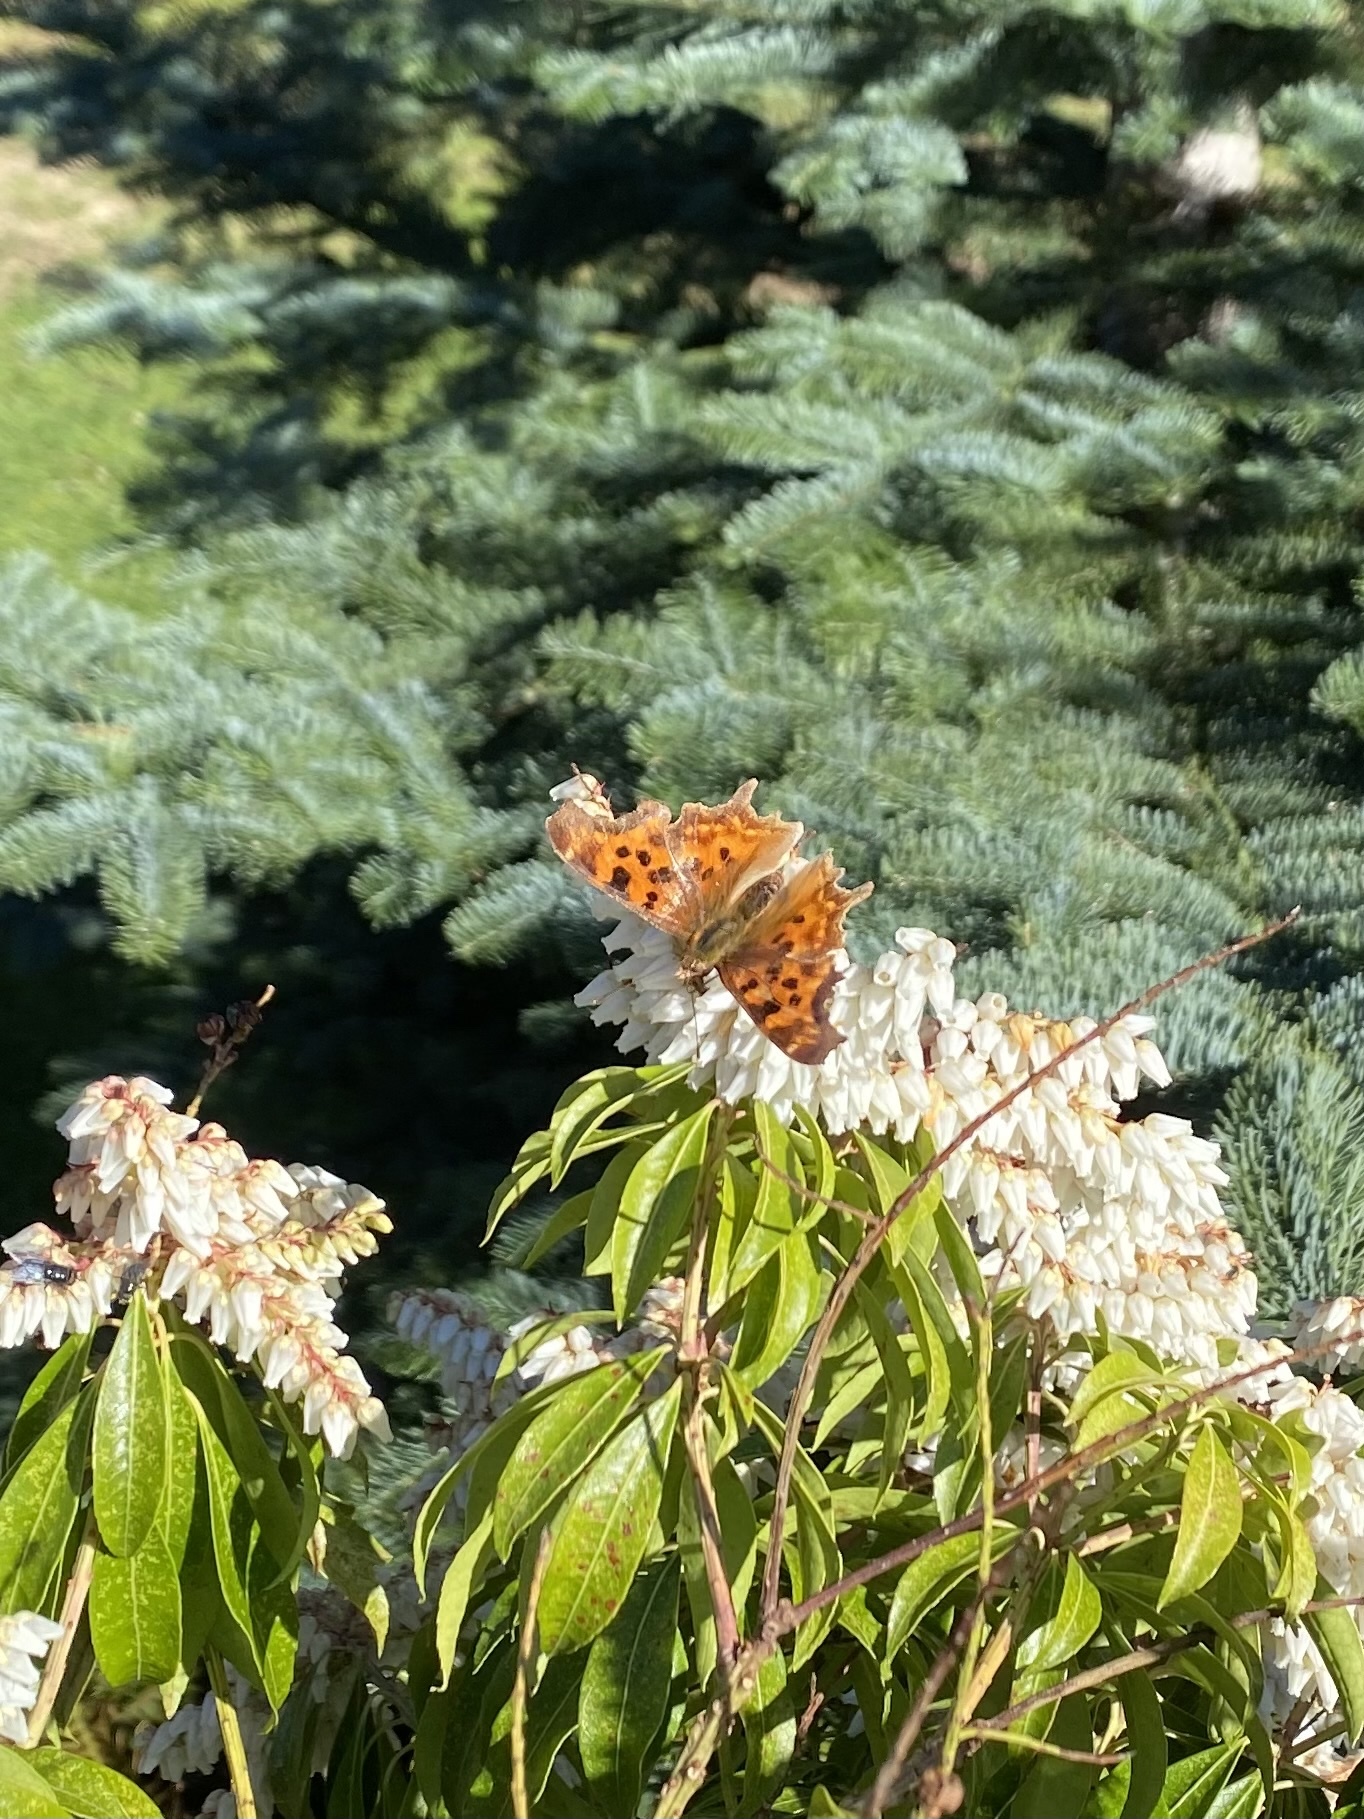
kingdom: Animalia
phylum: Arthropoda
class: Insecta
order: Lepidoptera
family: Nymphalidae
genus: Polygonia
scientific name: Polygonia satyrus
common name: Satyr angle wing
